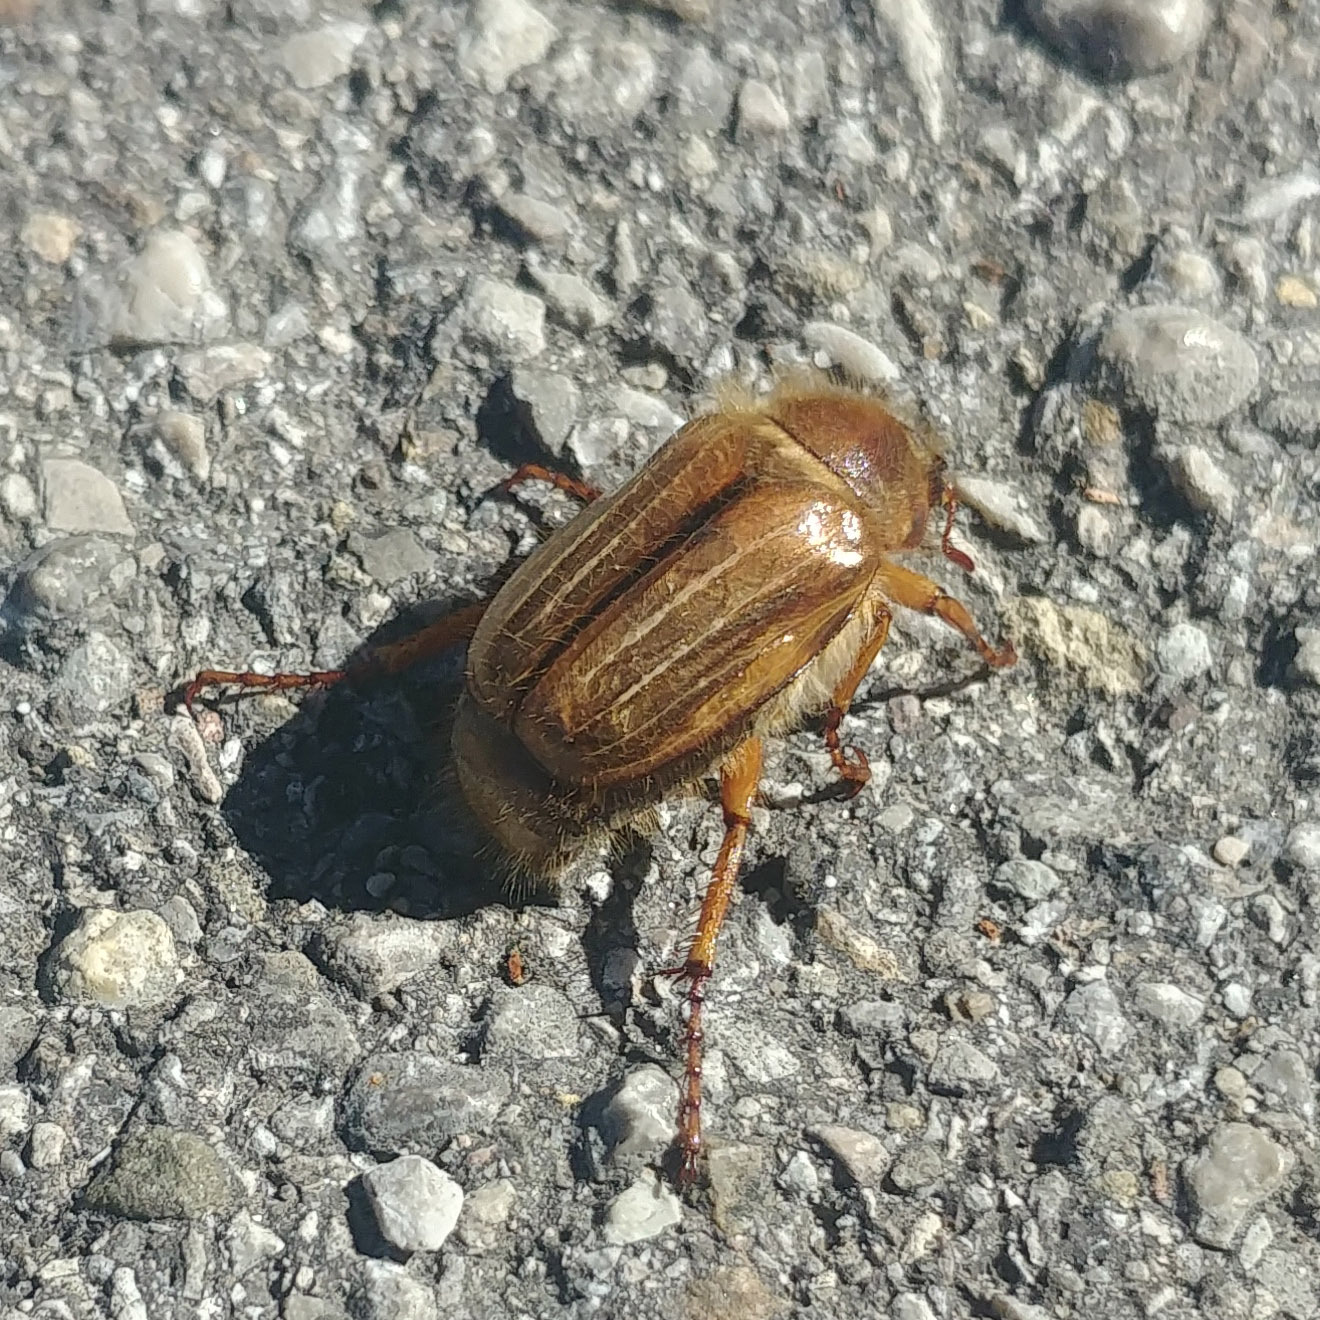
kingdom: Animalia
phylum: Arthropoda
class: Insecta
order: Coleoptera
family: Scarabaeidae
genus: Amphimallon
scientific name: Amphimallon solstitiale
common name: Summer chafer
